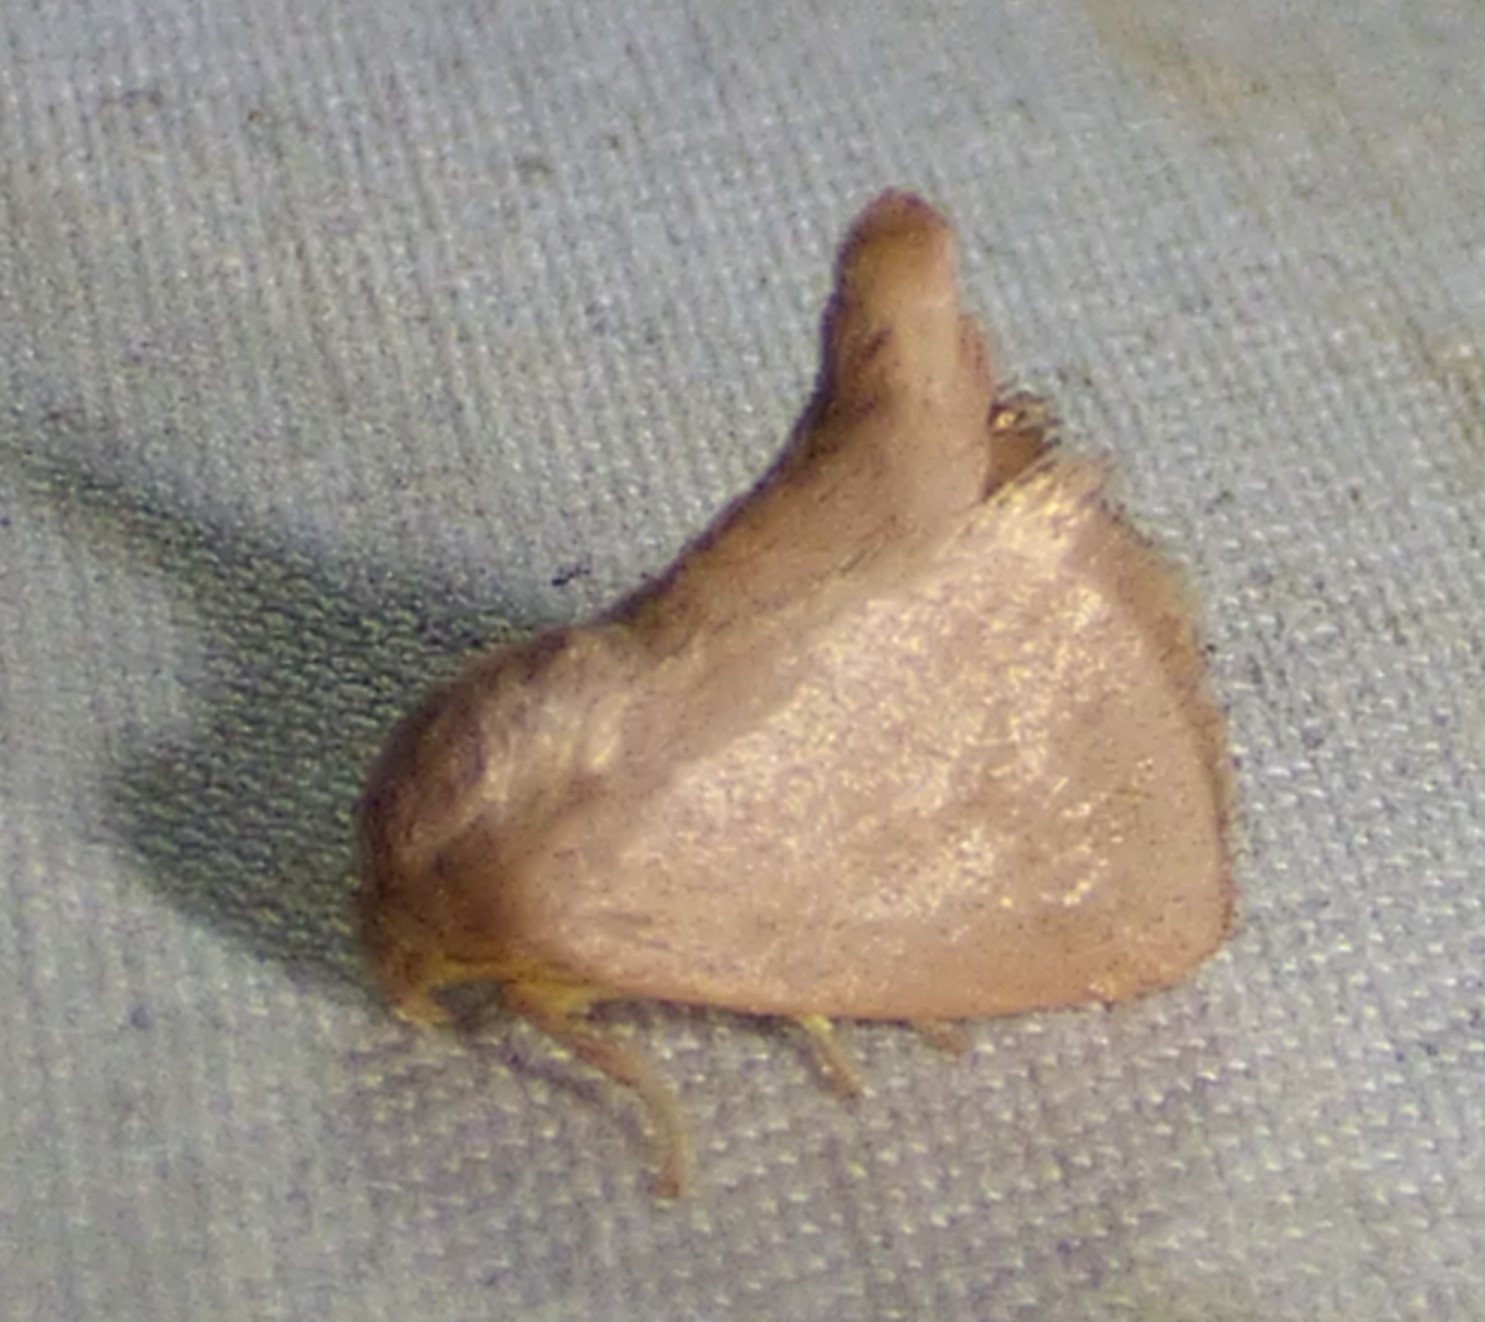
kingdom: Animalia
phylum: Arthropoda
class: Insecta
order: Lepidoptera
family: Limacodidae
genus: Tortricidia
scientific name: Tortricidia pallida
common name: Red-crossed button slug moth
